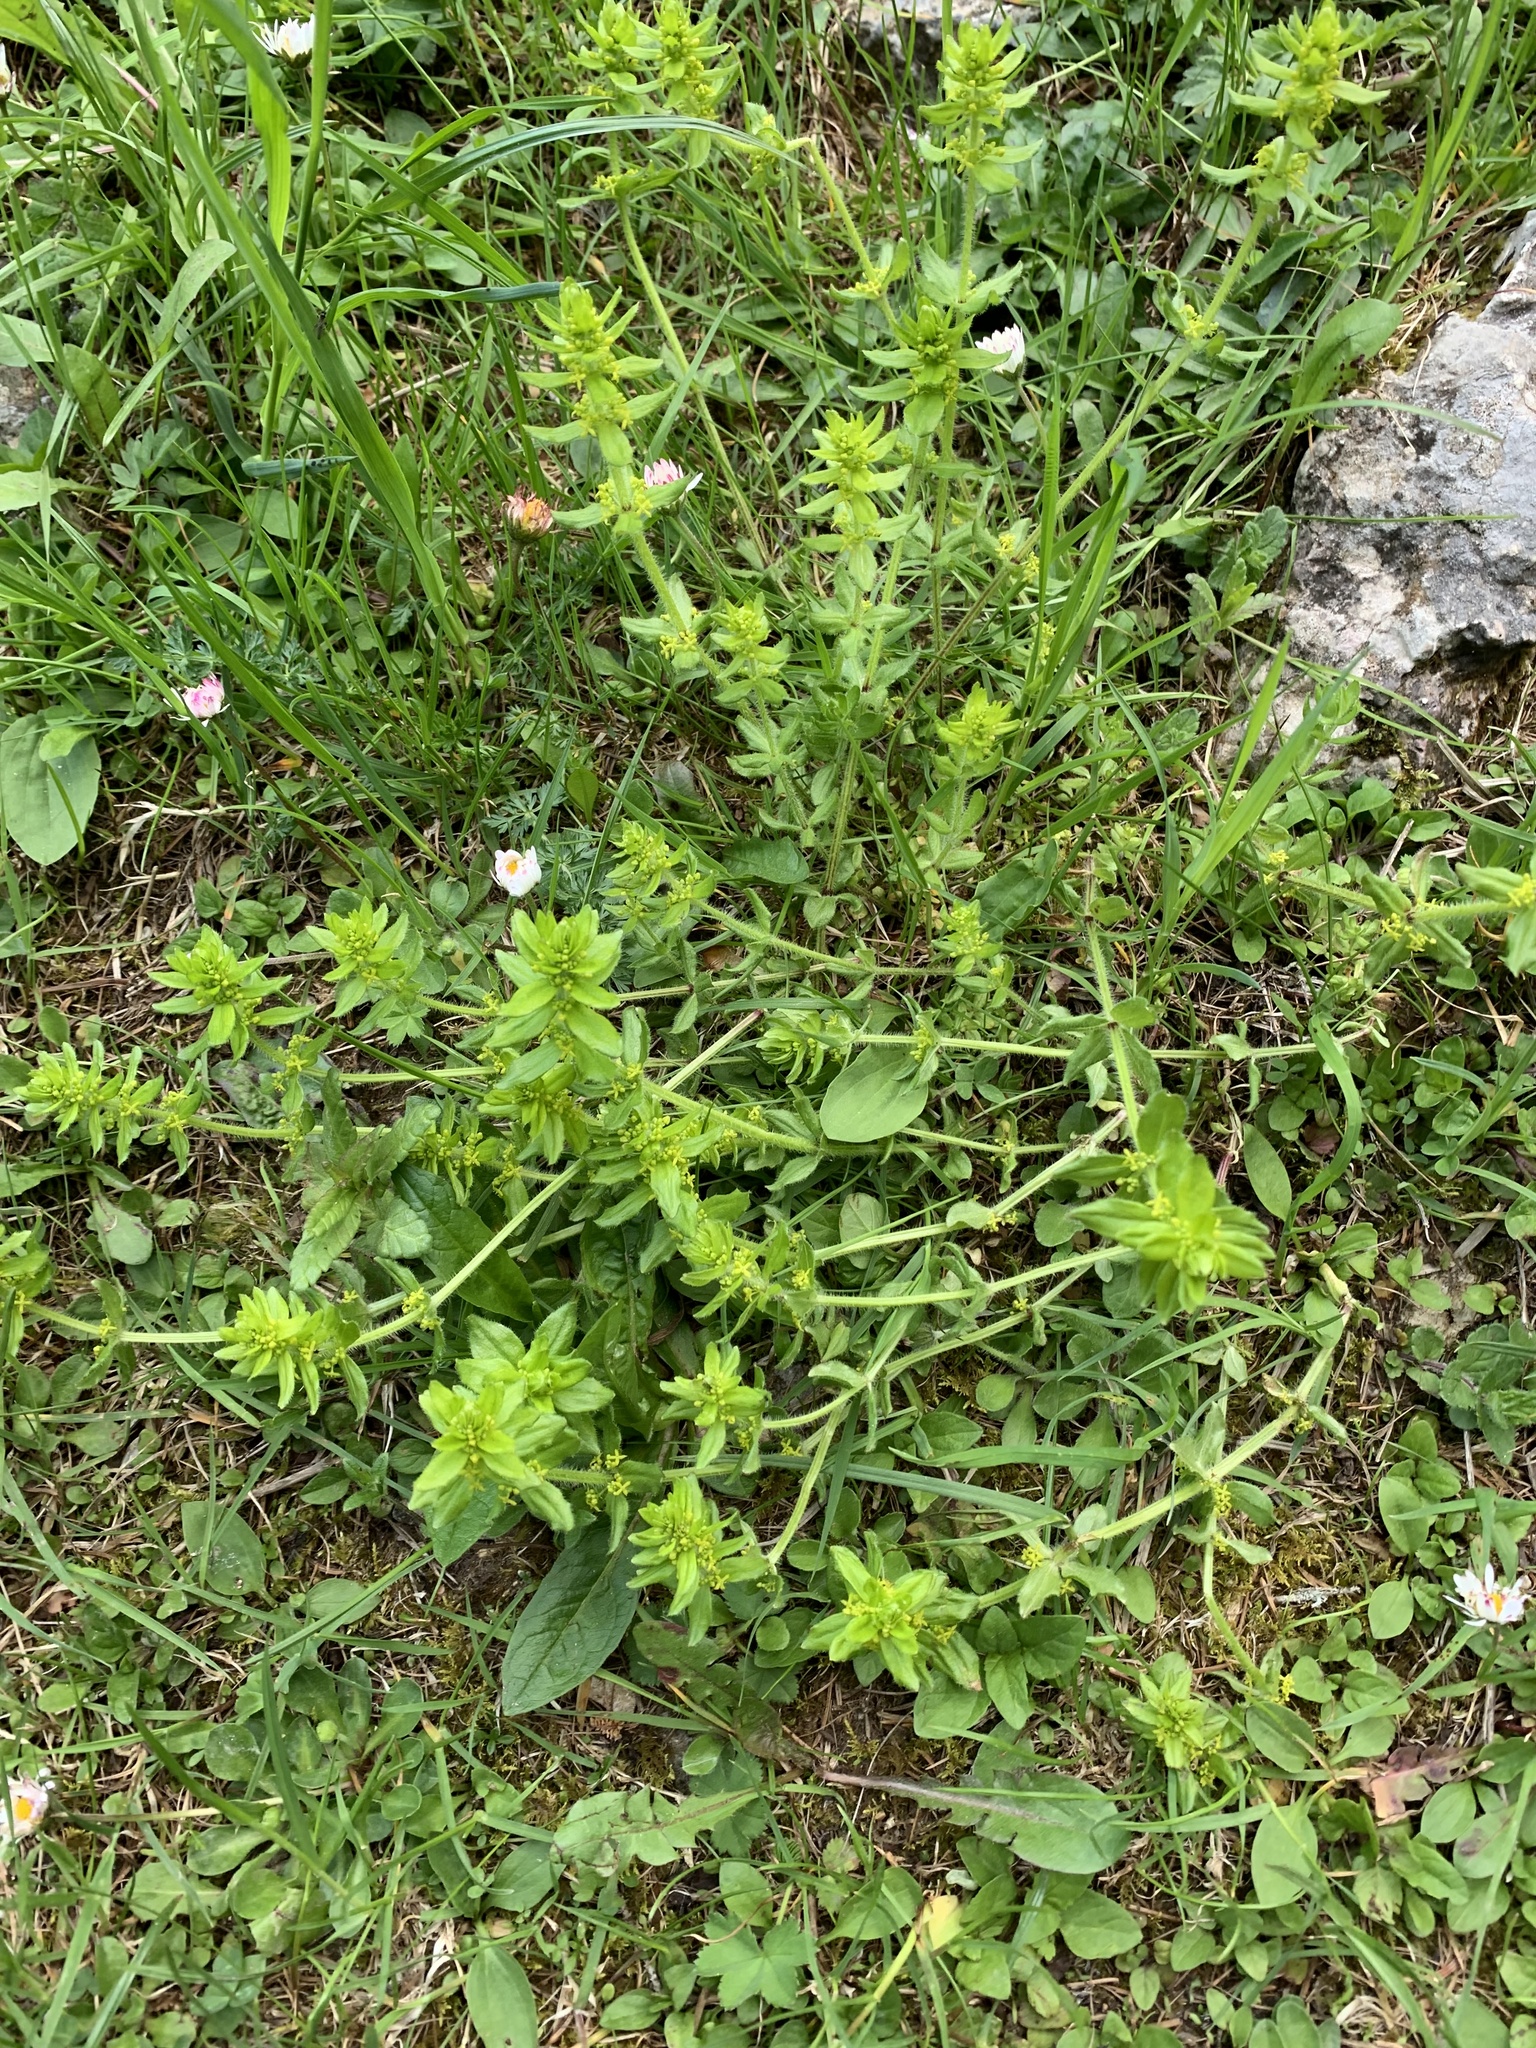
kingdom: Plantae
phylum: Tracheophyta
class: Magnoliopsida
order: Gentianales
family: Rubiaceae
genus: Cruciata
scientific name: Cruciata laevipes
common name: Crosswort
